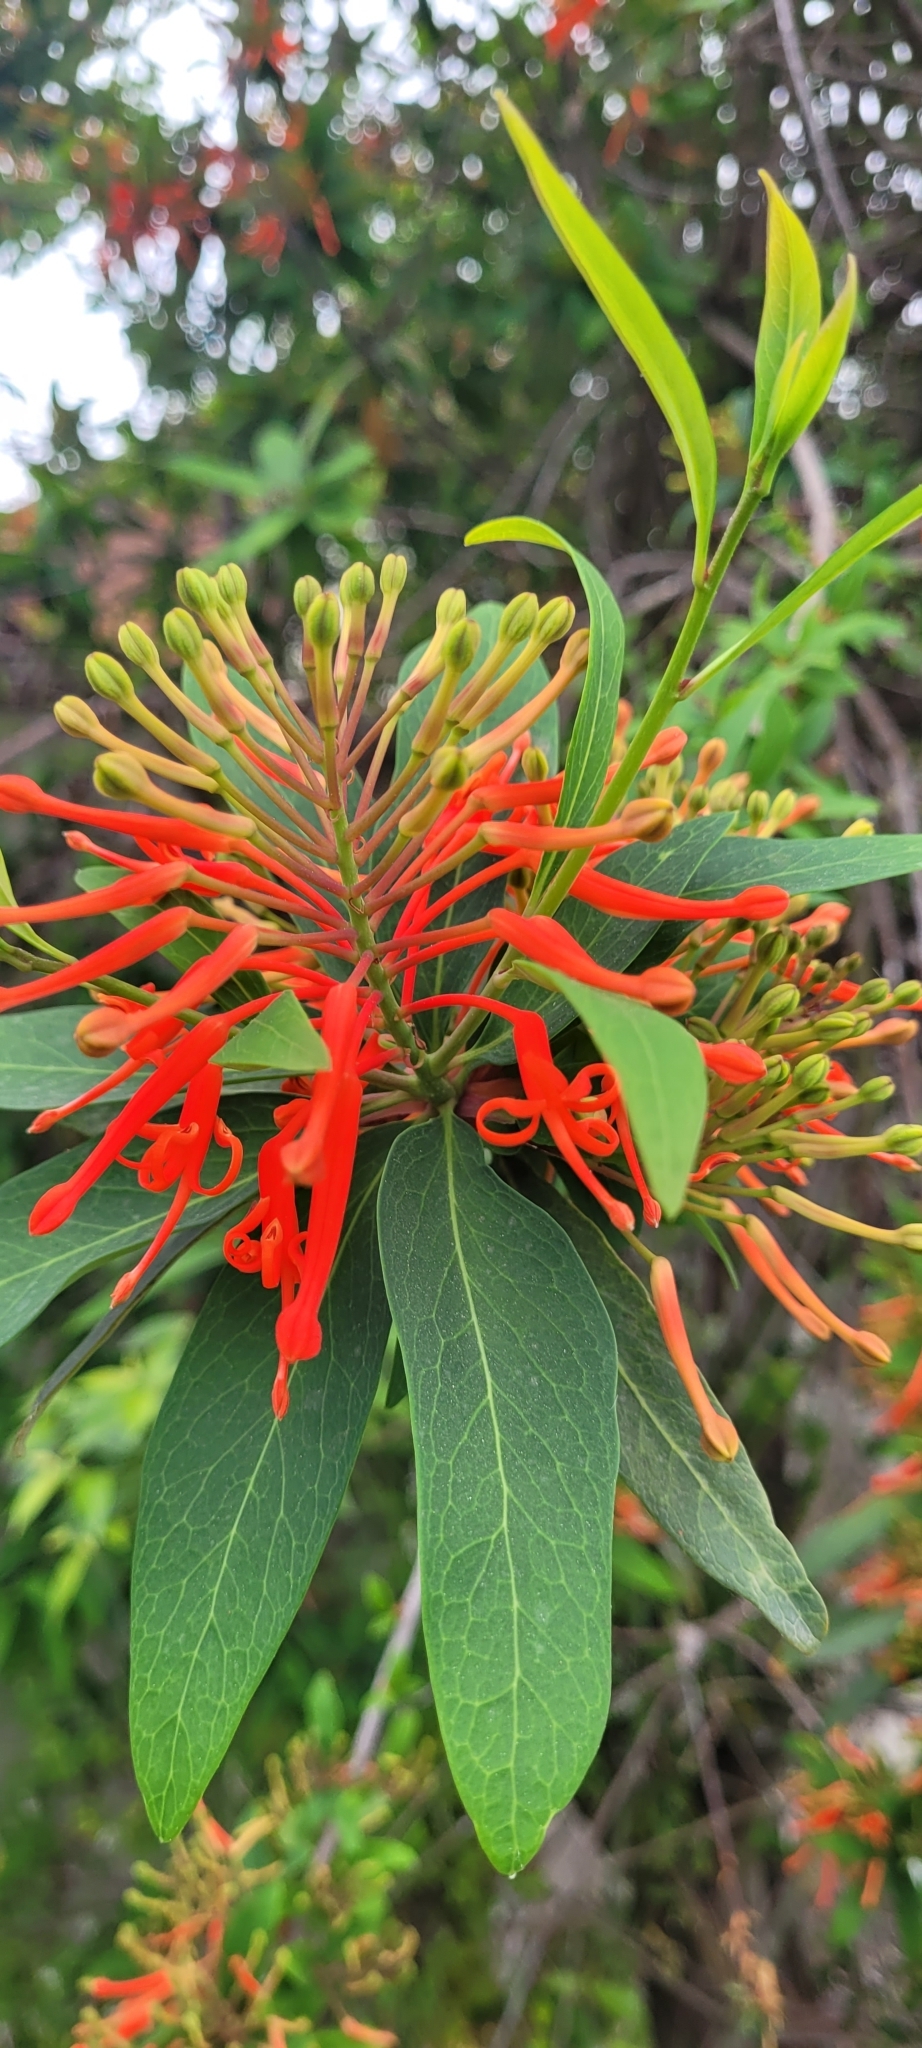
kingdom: Plantae
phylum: Tracheophyta
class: Magnoliopsida
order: Proteales
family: Proteaceae
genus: Embothrium
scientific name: Embothrium coccineum
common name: Chilean firebush
